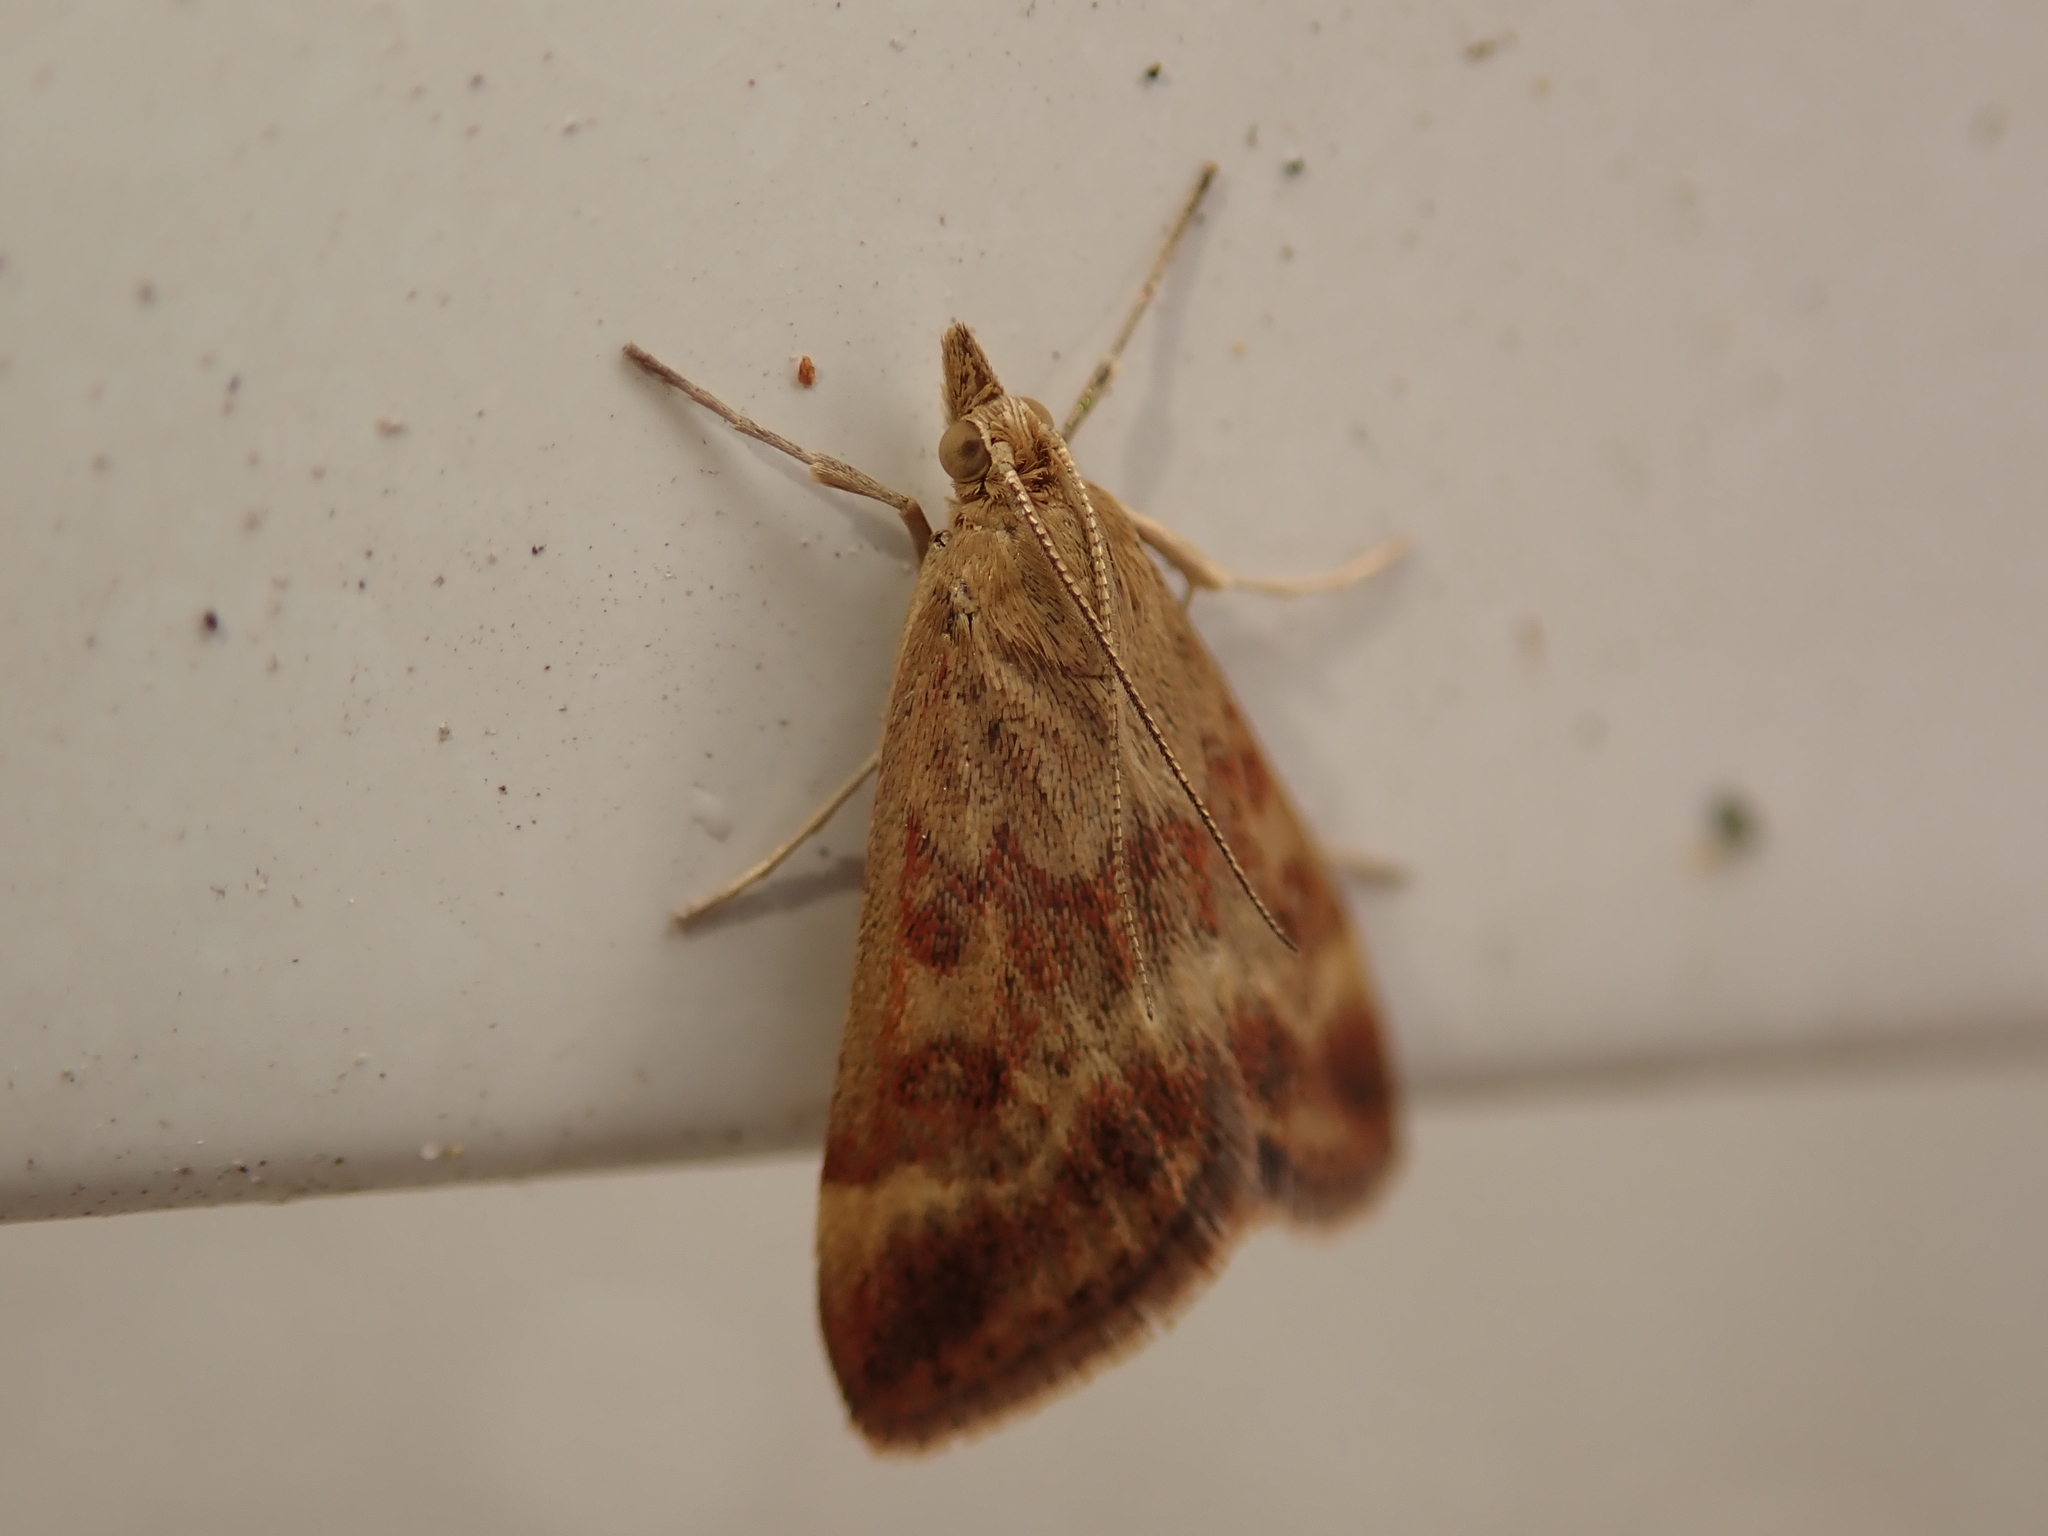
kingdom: Animalia
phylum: Arthropoda
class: Insecta
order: Lepidoptera
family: Crambidae
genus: Pyrausta
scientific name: Pyrausta despicata
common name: Straw-barred pearl
